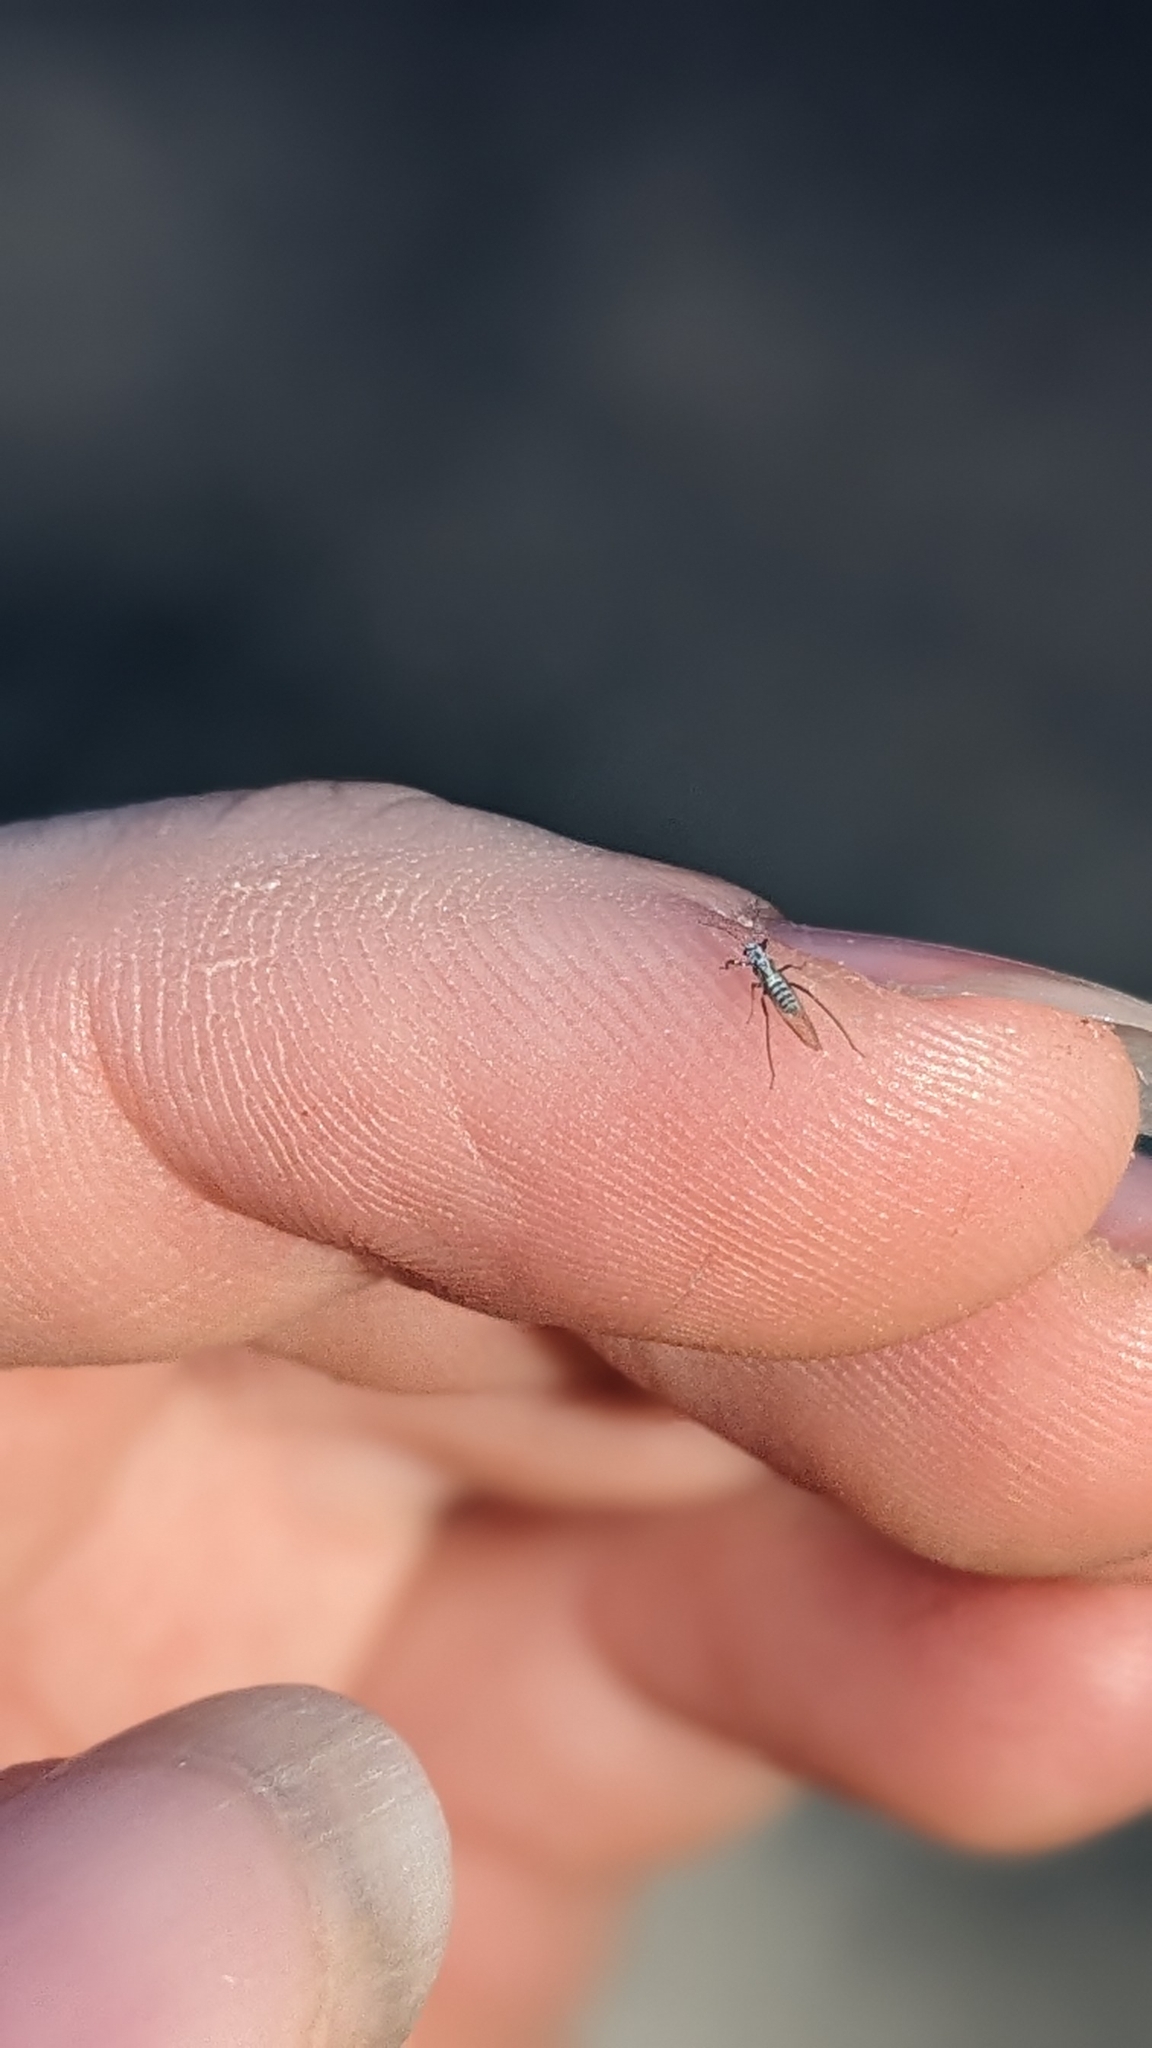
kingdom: Animalia
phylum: Arthropoda
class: Insecta
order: Hemiptera
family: Aphididae
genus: Eulachnus
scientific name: Eulachnus rileyi
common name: Active gray pine needle aphid
